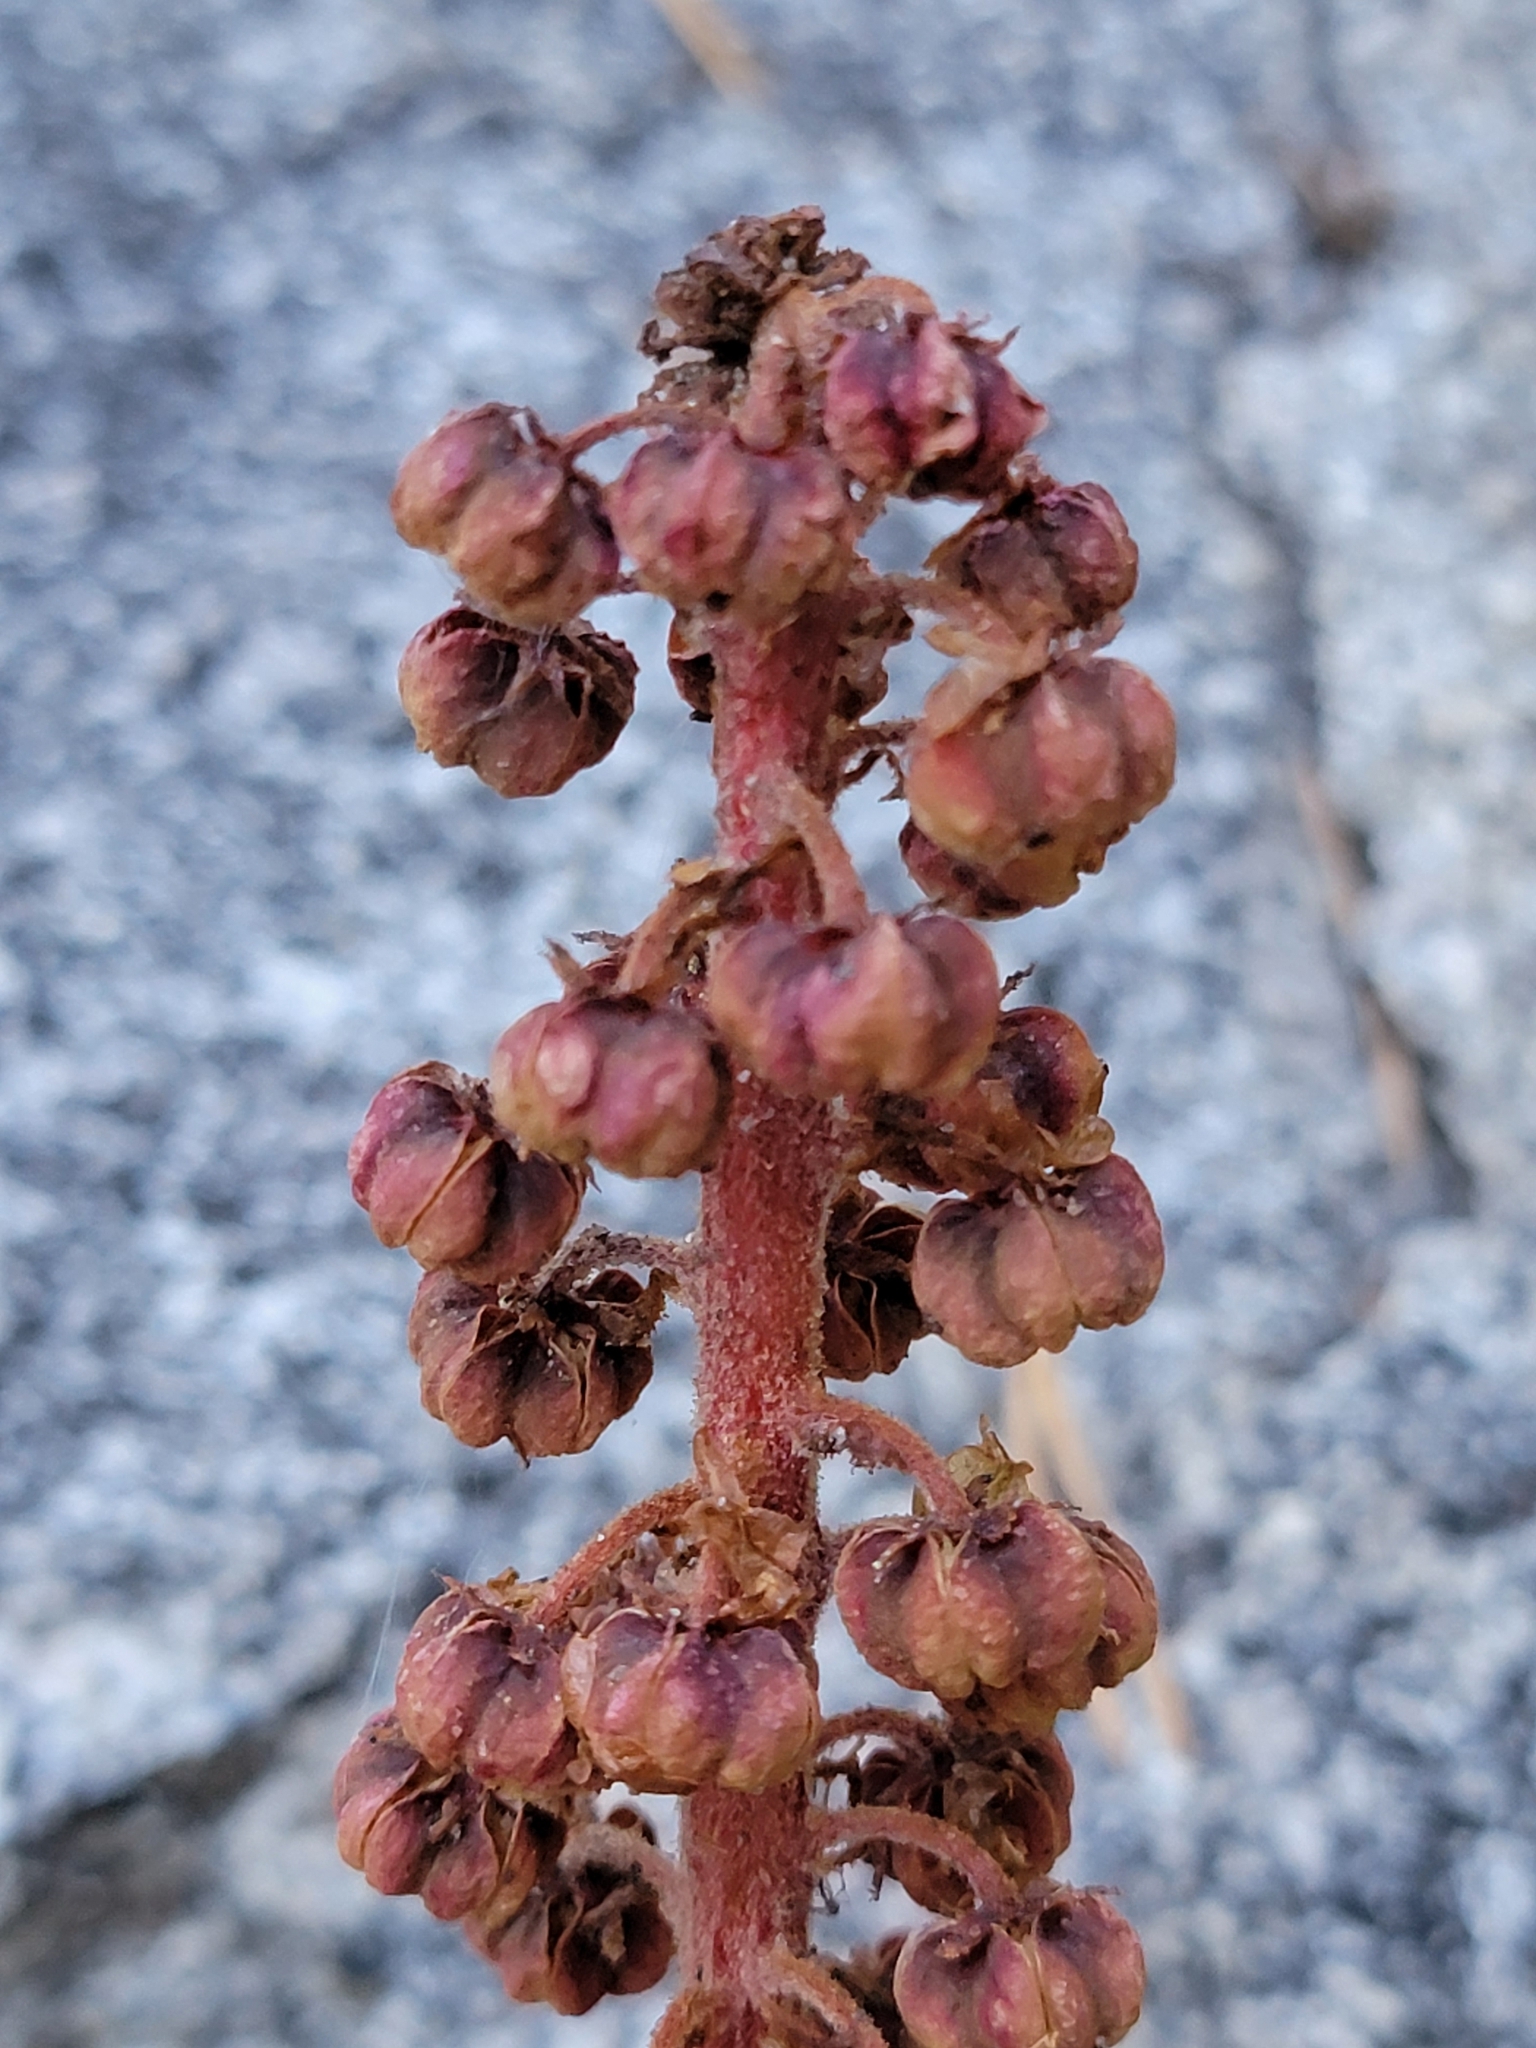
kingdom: Plantae
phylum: Tracheophyta
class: Magnoliopsida
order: Ericales
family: Ericaceae
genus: Pterospora
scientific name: Pterospora andromedea
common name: Giant bird's-nest
